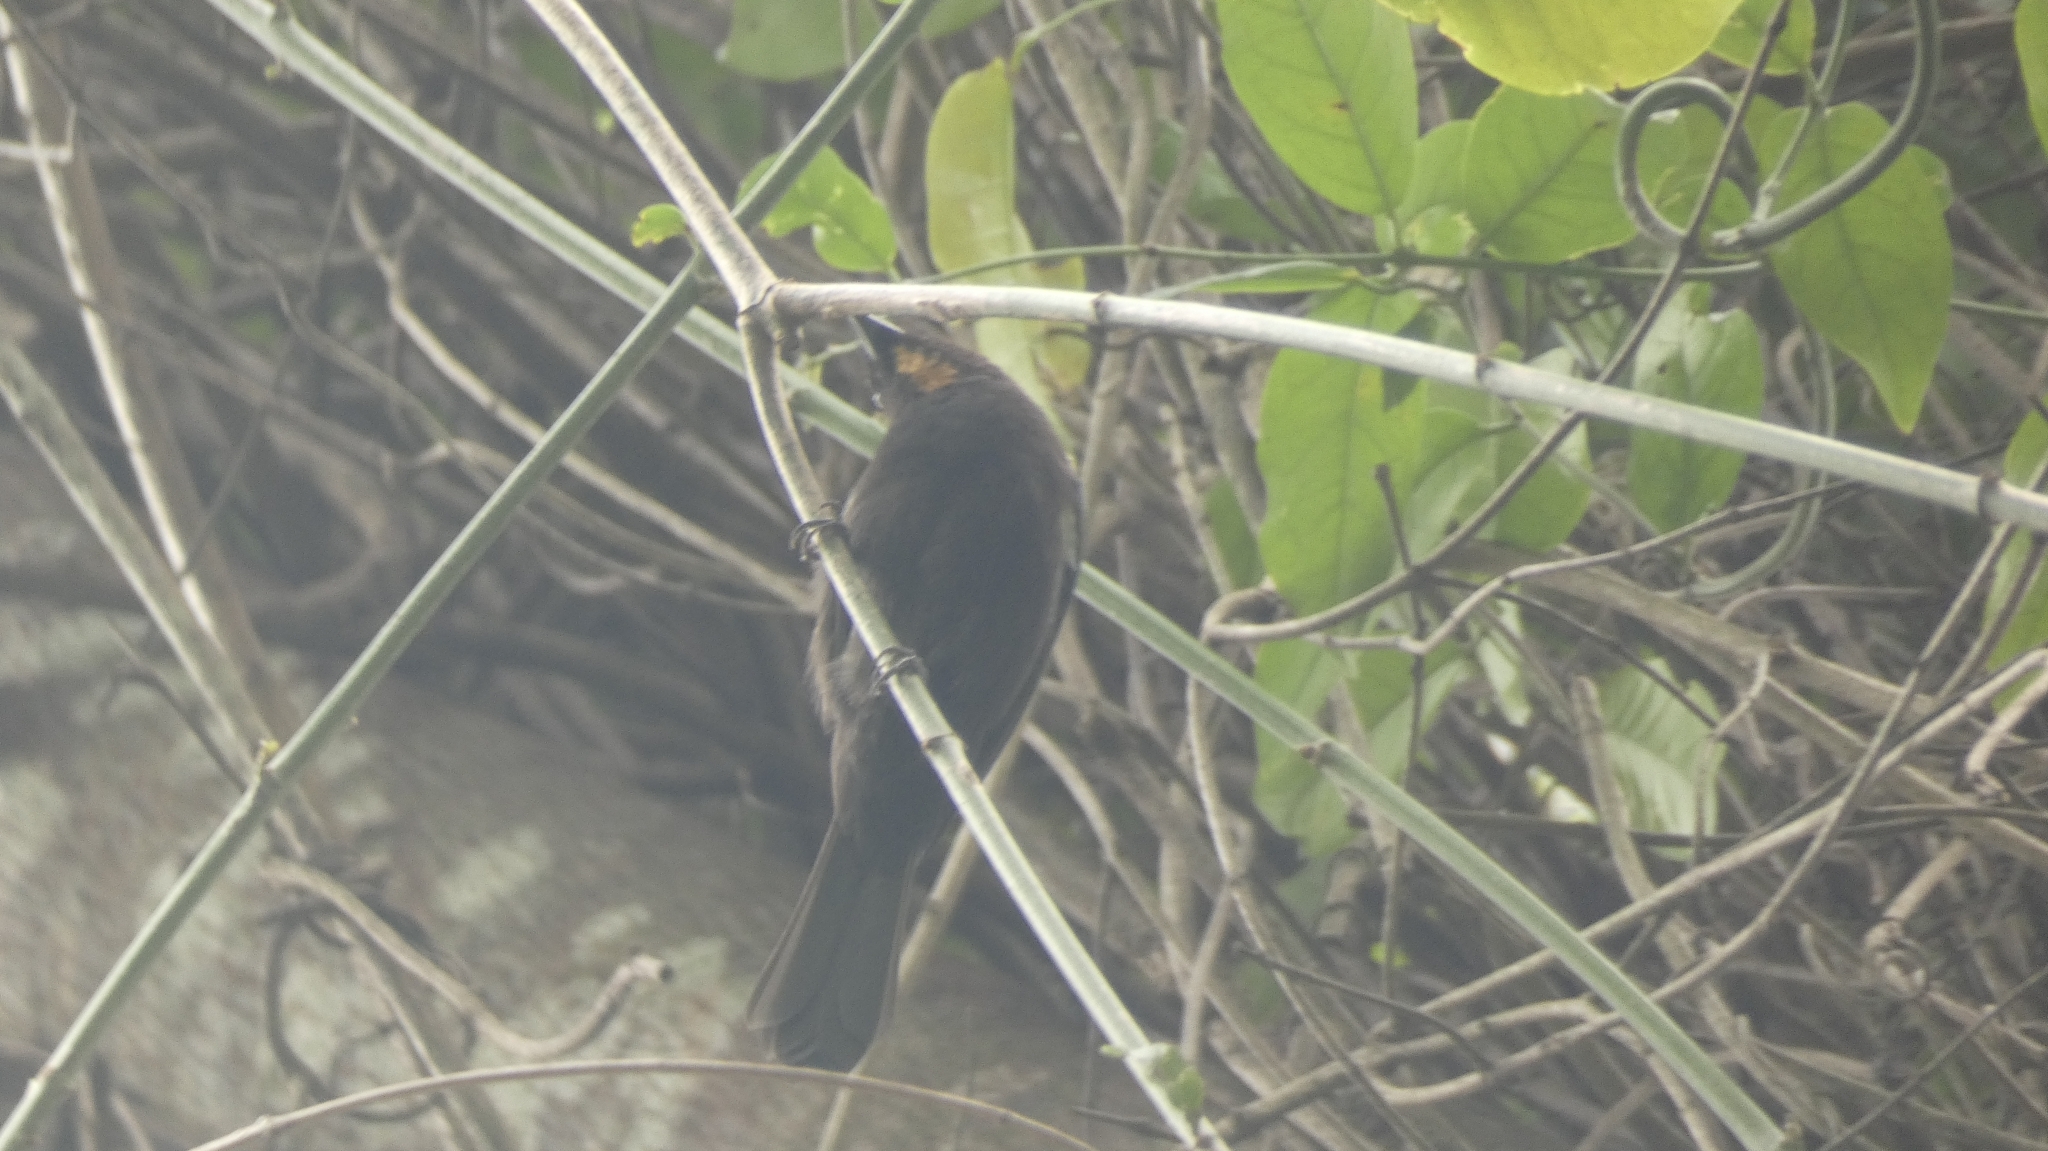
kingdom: Animalia
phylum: Chordata
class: Aves
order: Passeriformes
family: Thraupidae
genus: Loriotus
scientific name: Loriotus cristatus
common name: Flame-crested tanager
